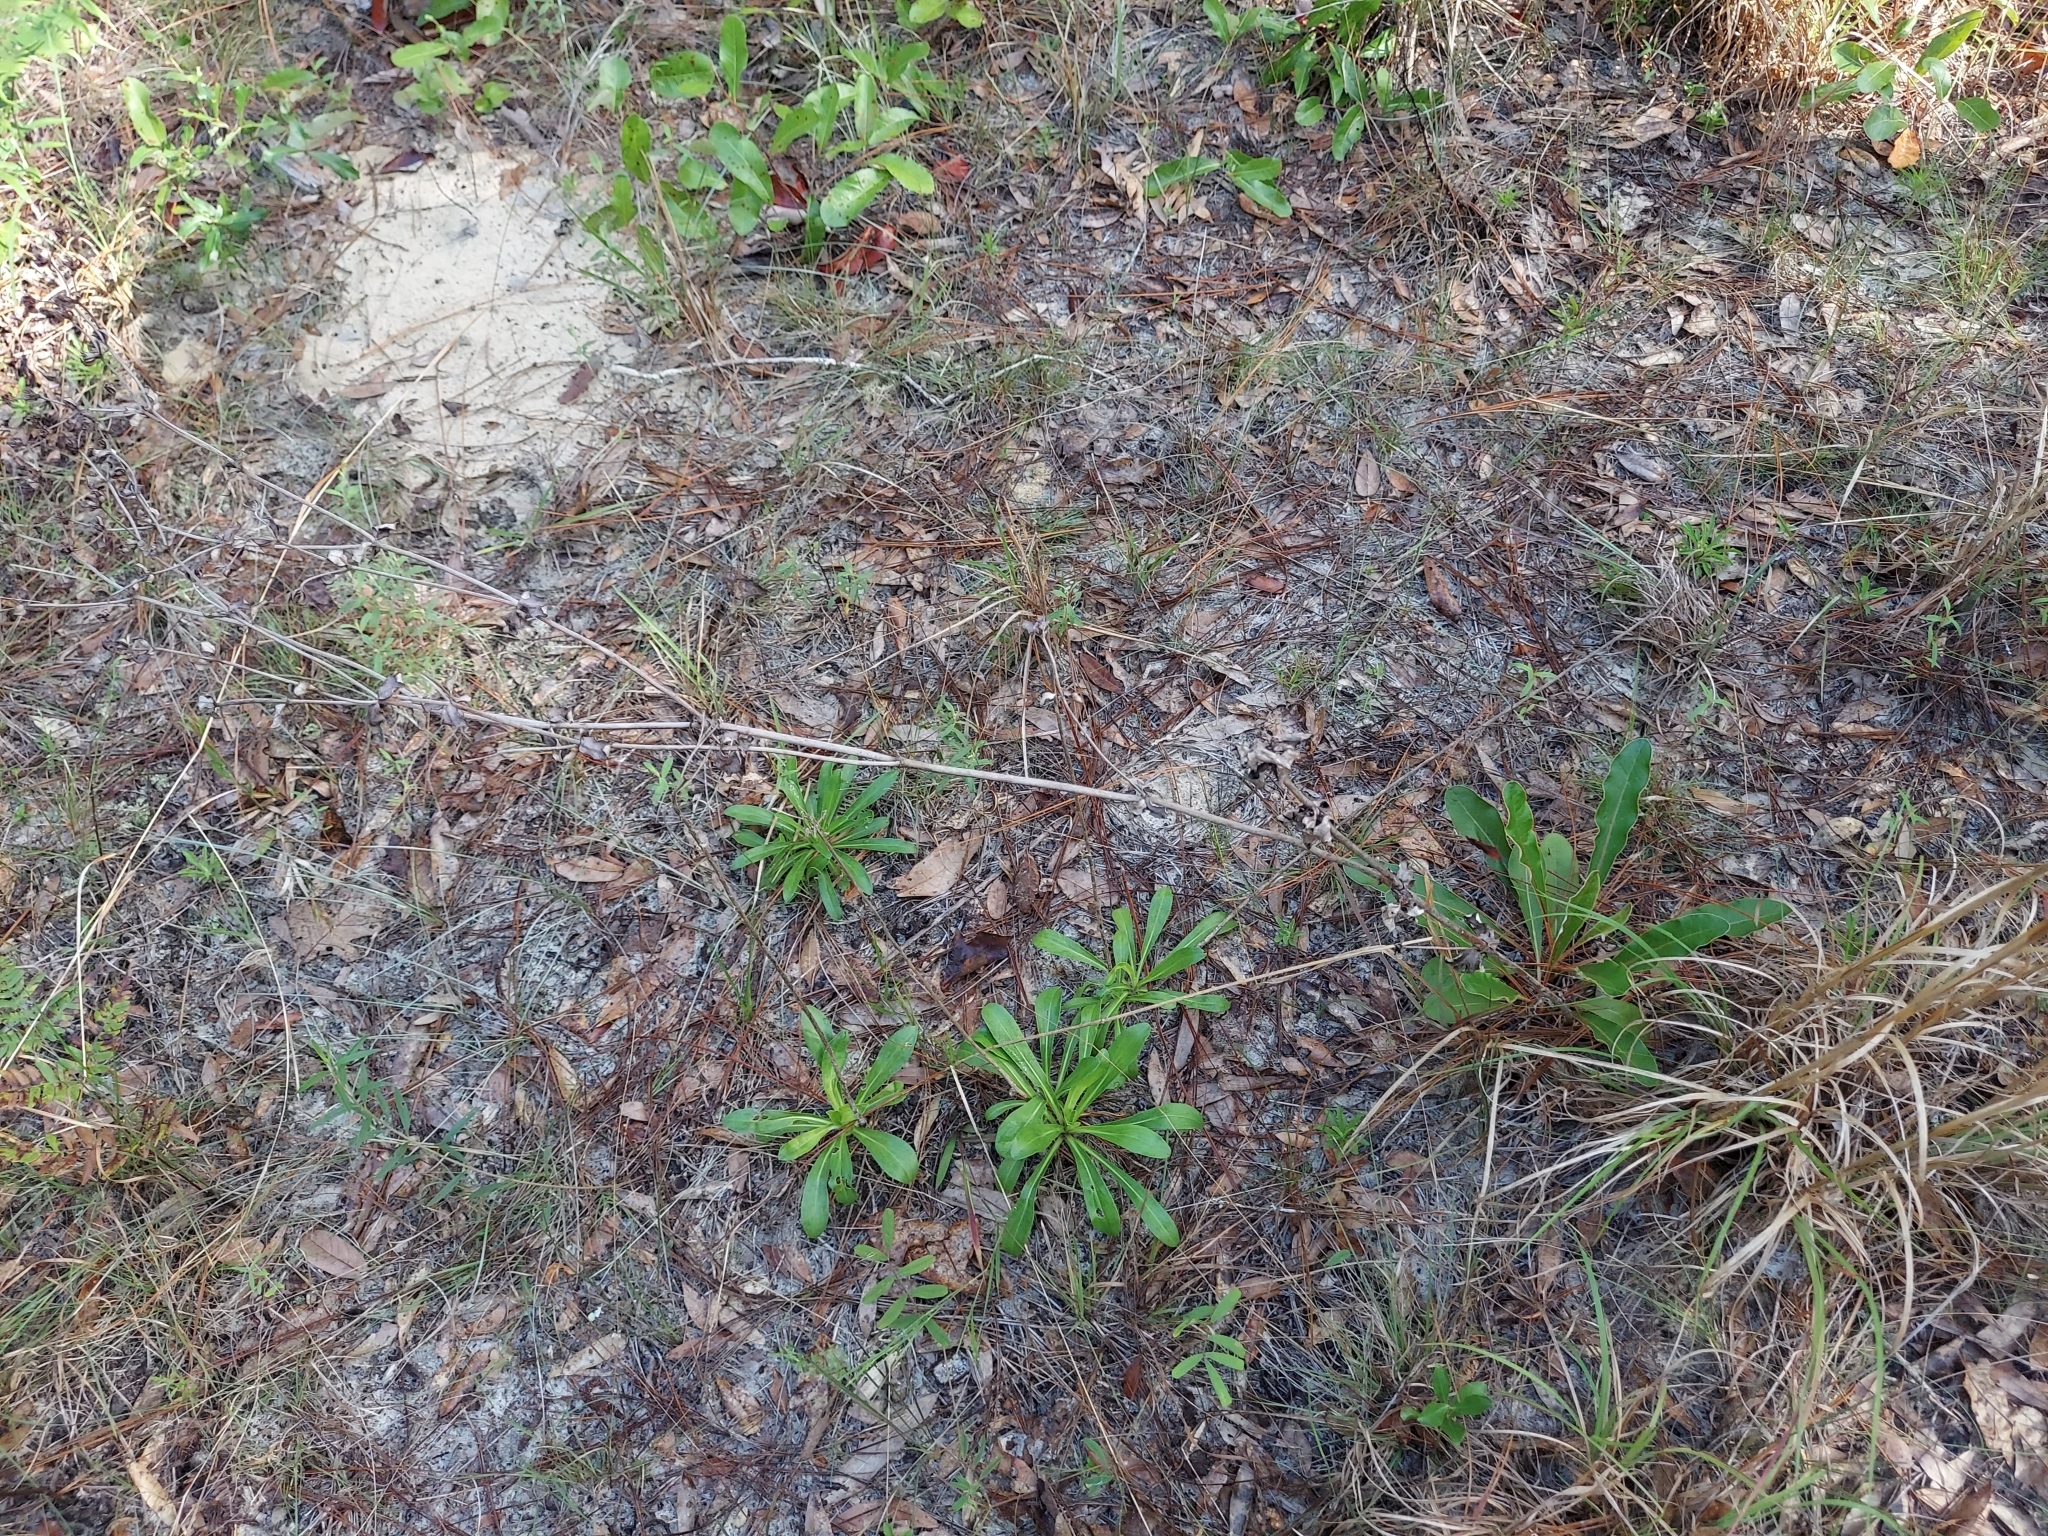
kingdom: Plantae
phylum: Tracheophyta
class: Magnoliopsida
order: Caryophyllales
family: Polygonaceae
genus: Eriogonum
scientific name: Eriogonum tomentosum
